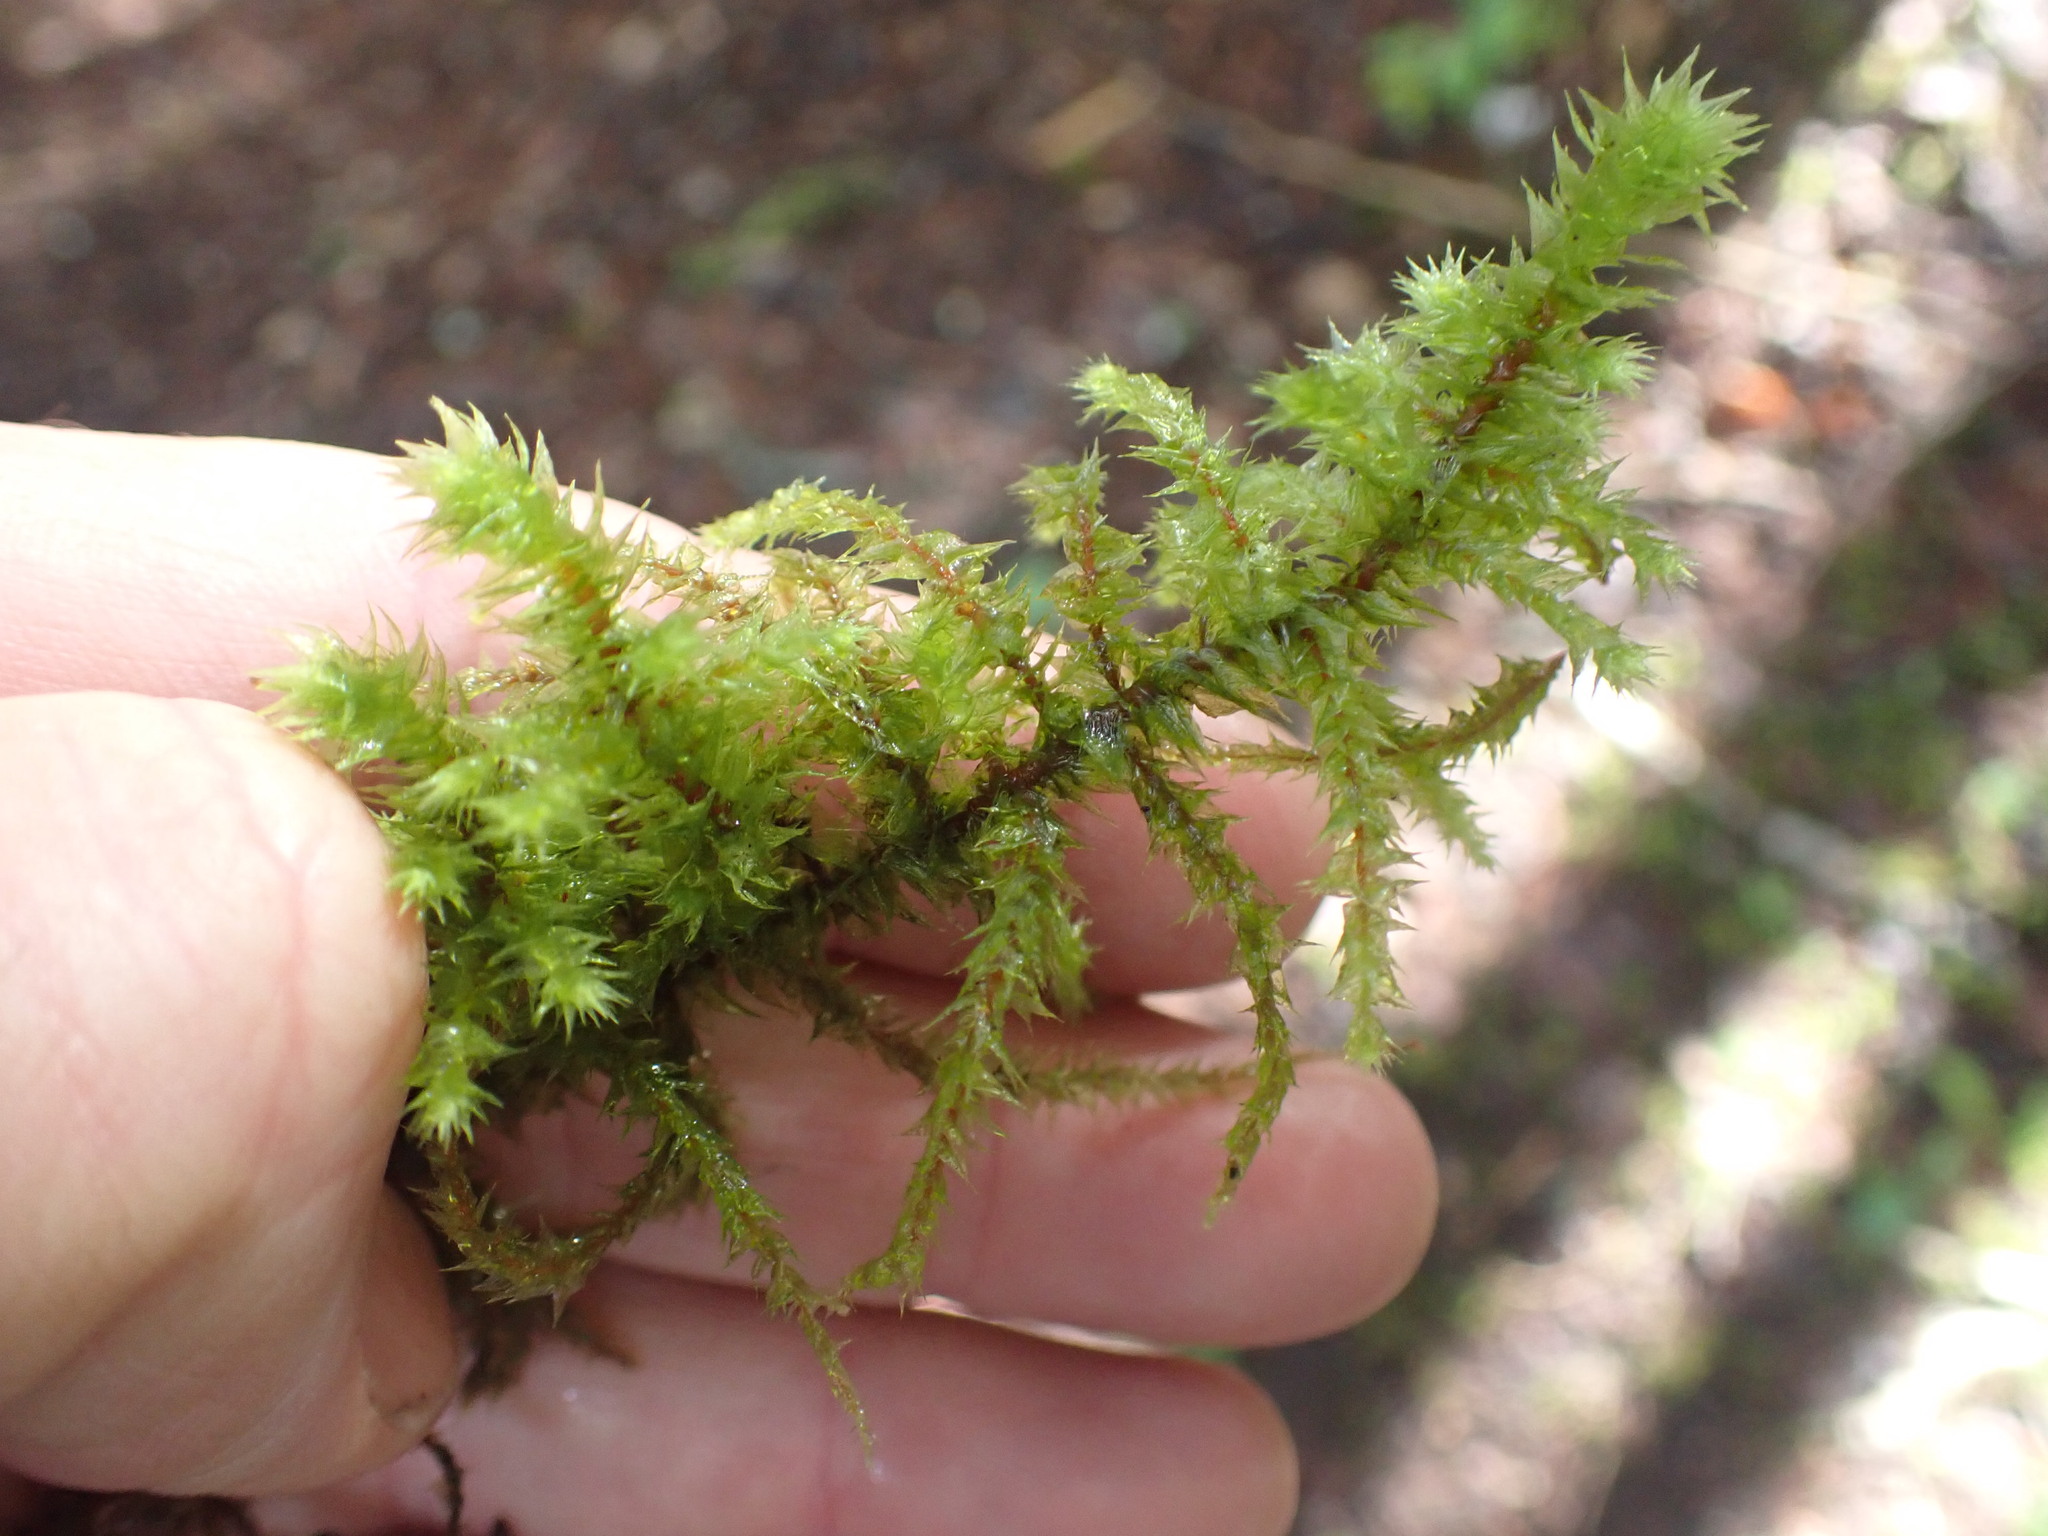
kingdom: Plantae
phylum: Bryophyta
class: Bryopsida
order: Hypnales
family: Hylocomiaceae
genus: Hylocomiadelphus
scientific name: Hylocomiadelphus triquetrus
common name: Rough goose neck moss
